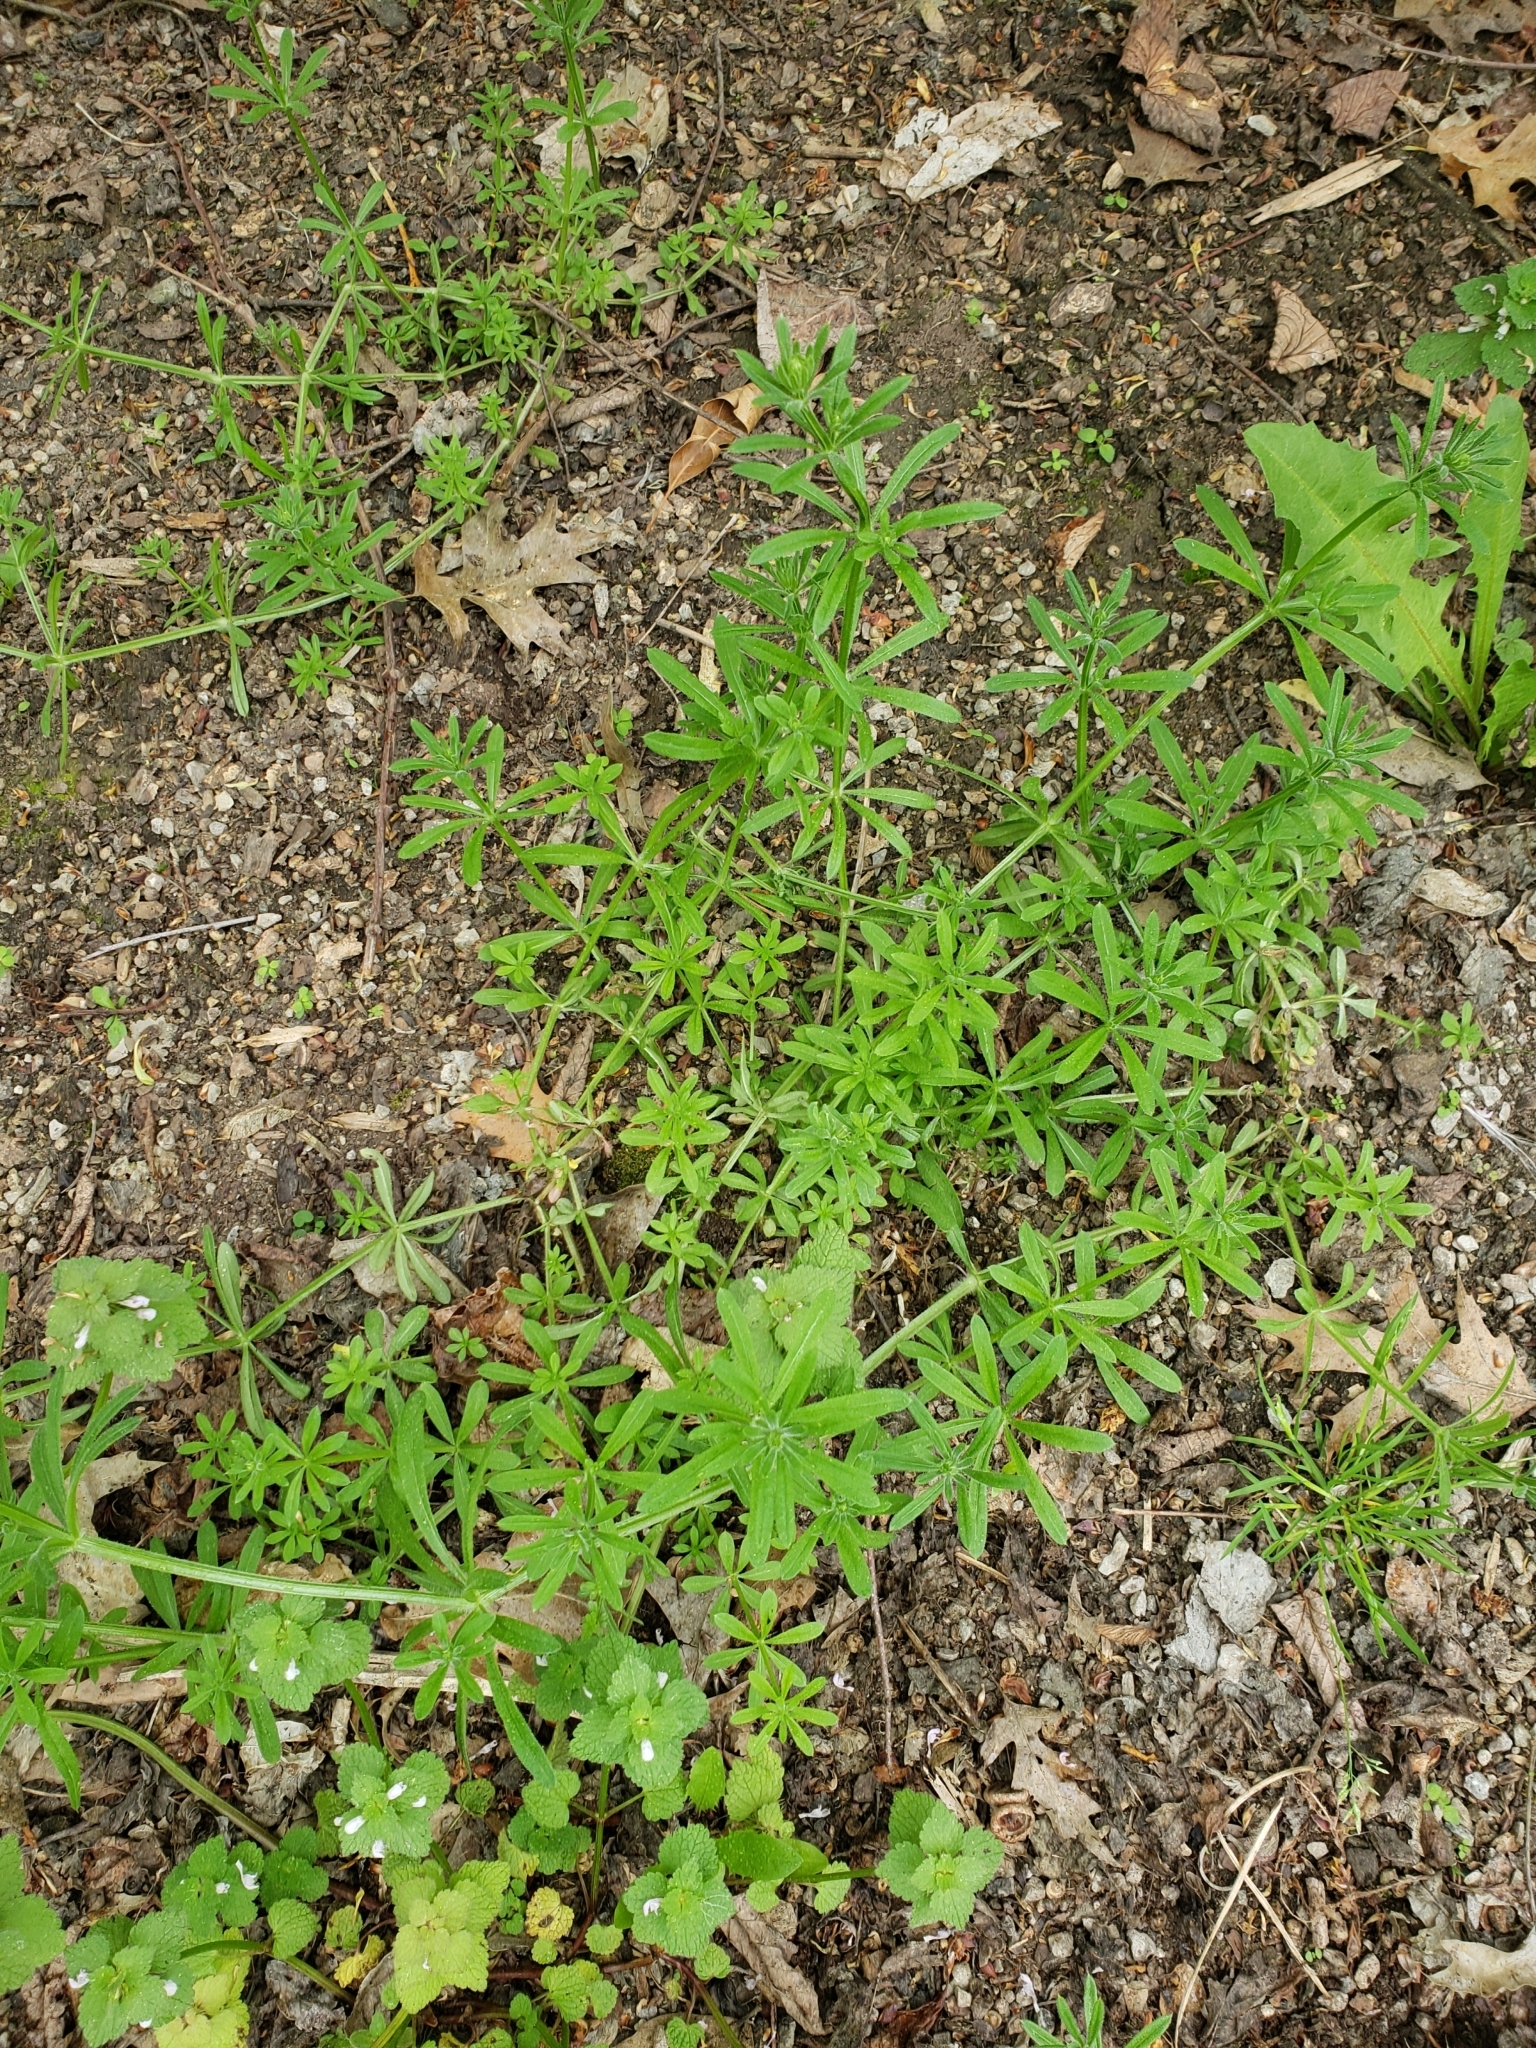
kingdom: Plantae
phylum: Tracheophyta
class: Magnoliopsida
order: Gentianales
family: Rubiaceae
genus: Galium
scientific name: Galium aparine
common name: Cleavers
